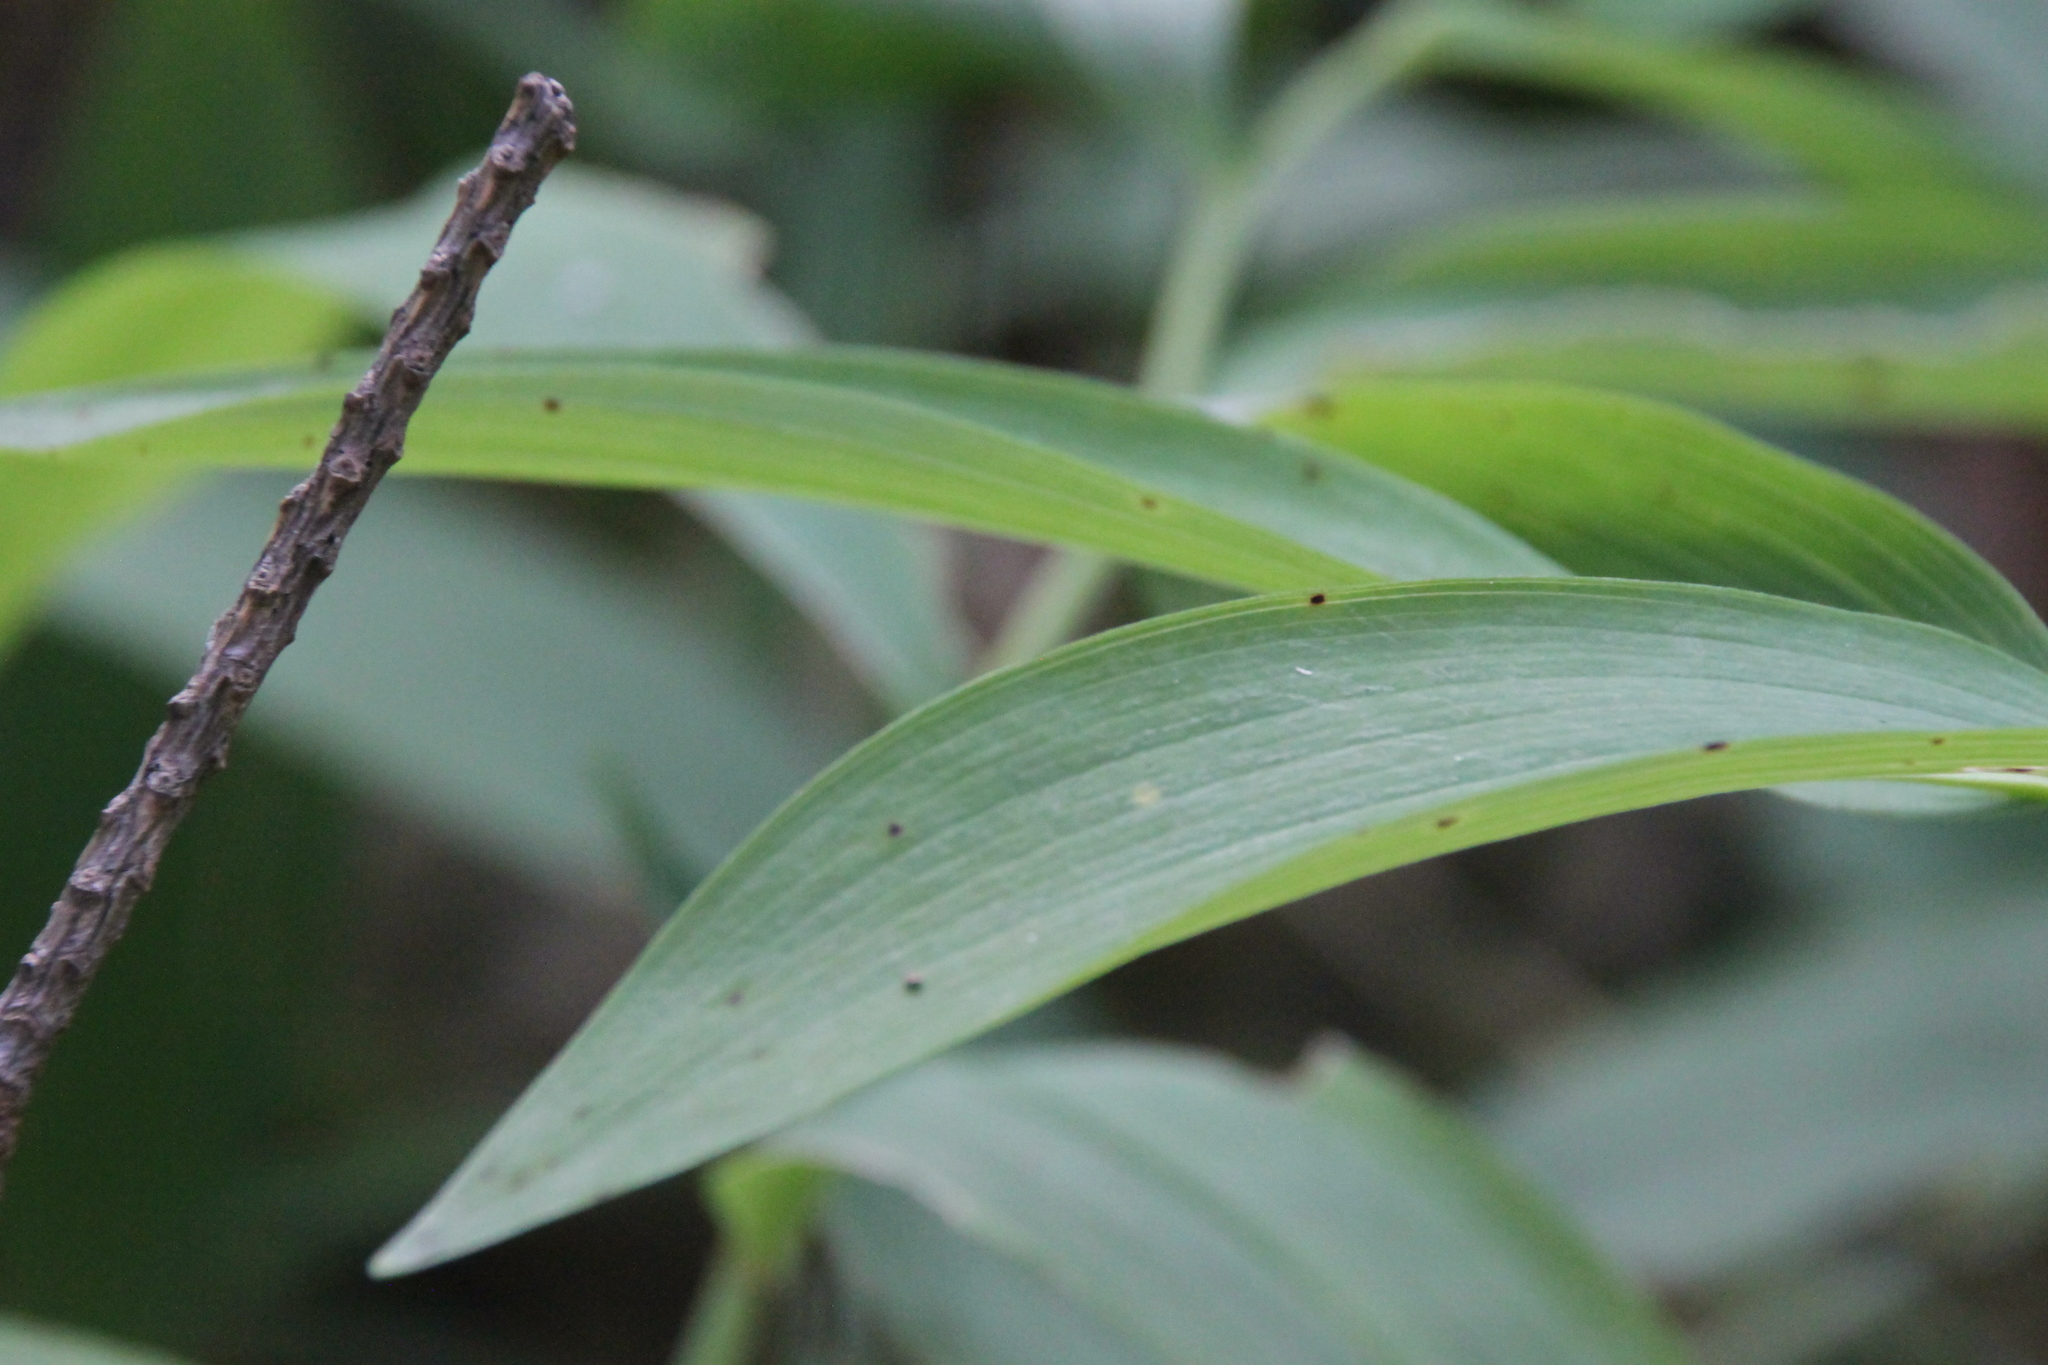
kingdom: Plantae
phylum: Tracheophyta
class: Liliopsida
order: Asparagales
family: Asparagaceae
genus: Polygonatum
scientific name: Polygonatum odoratum
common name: Angular solomon's-seal
